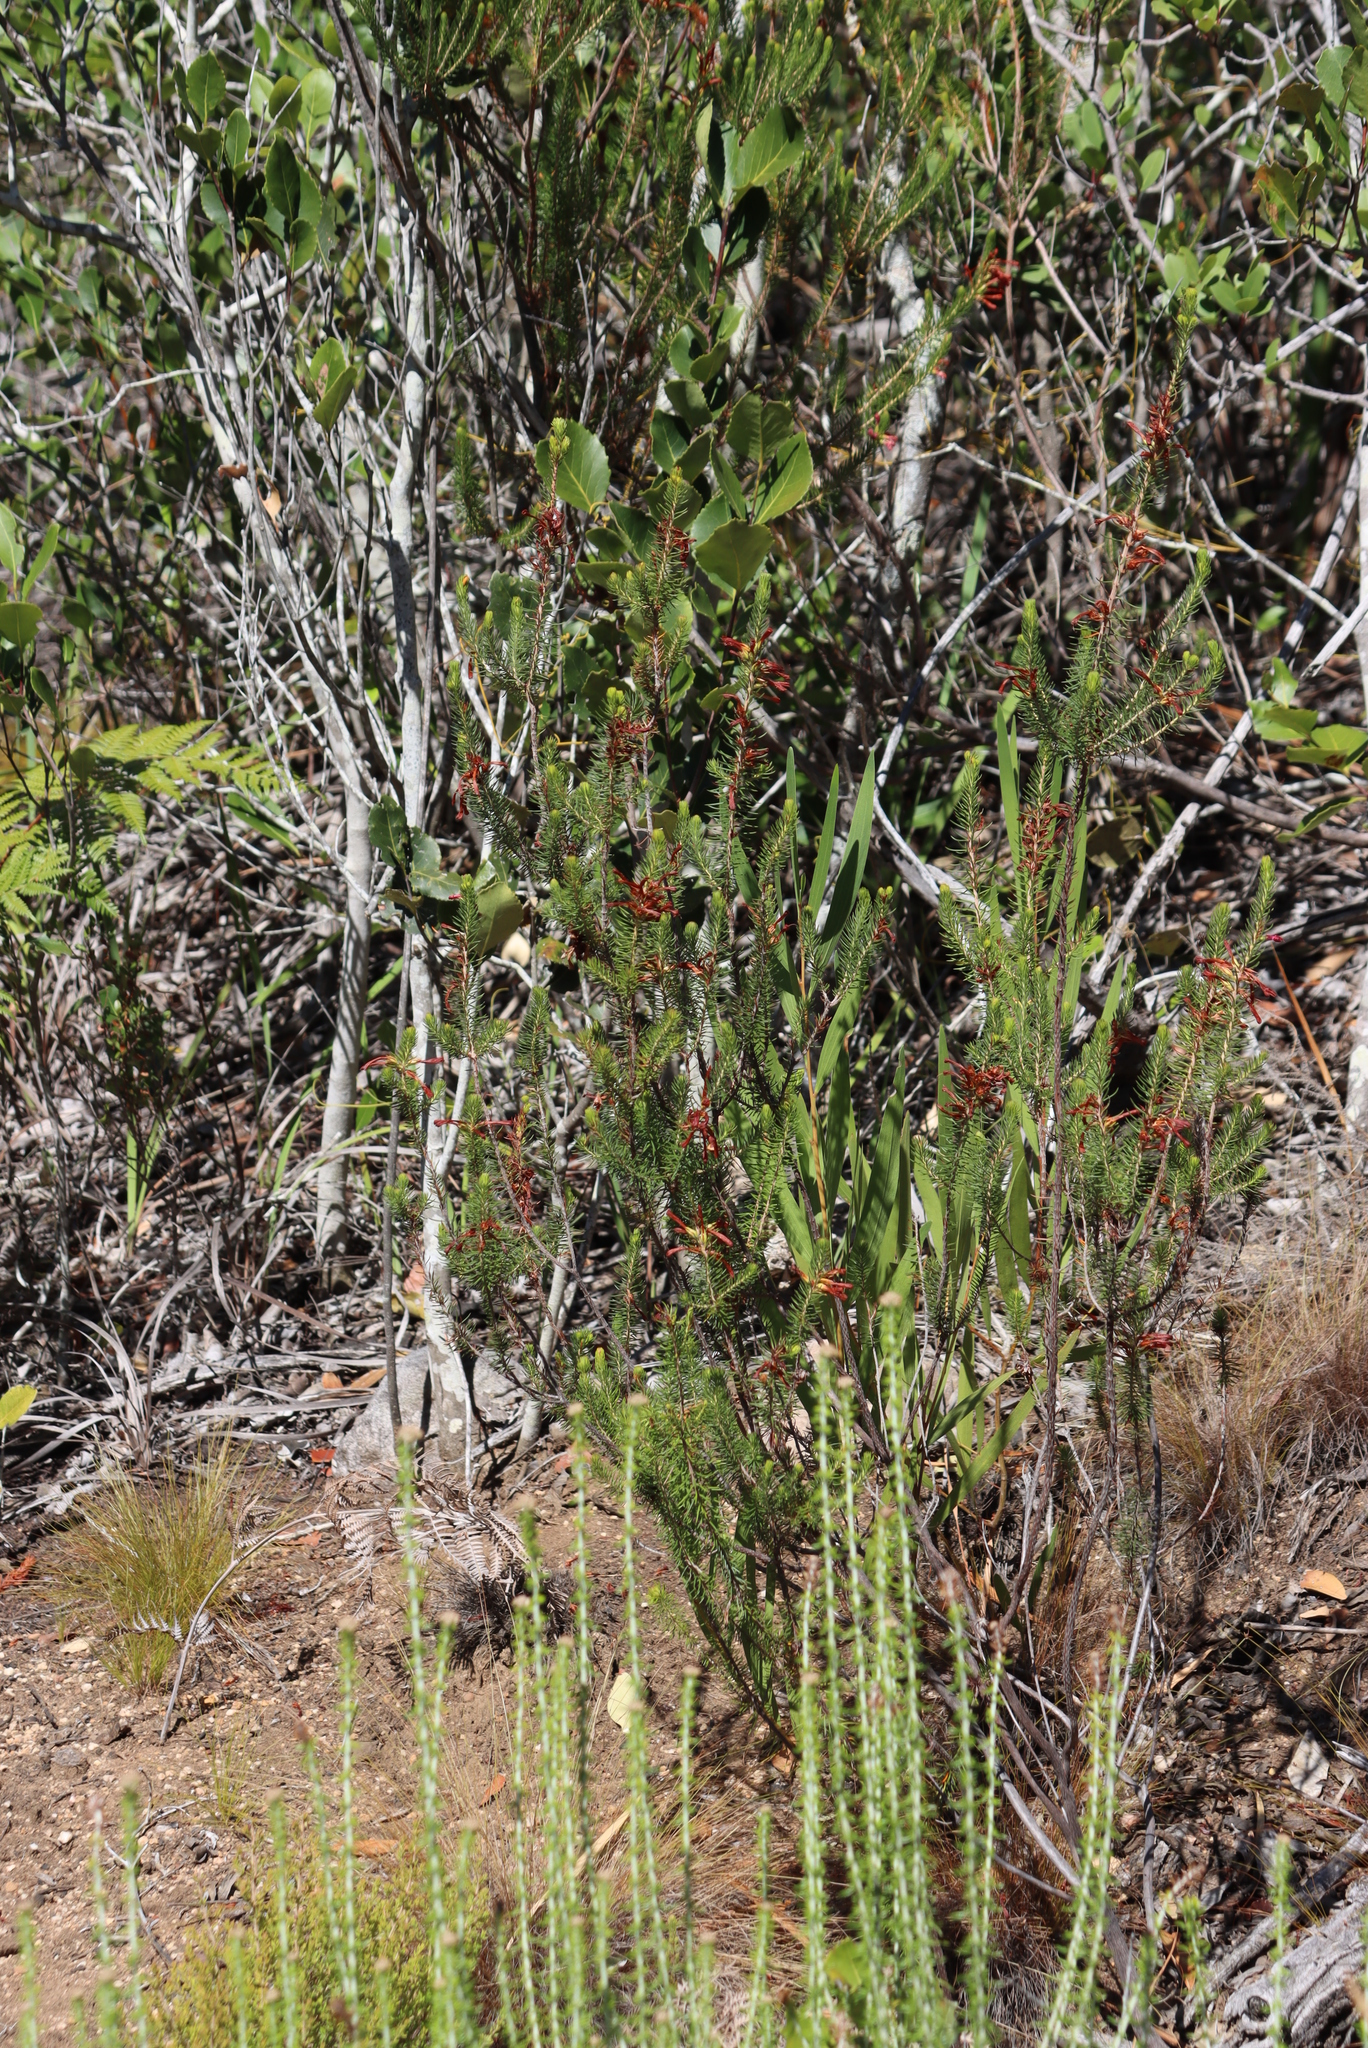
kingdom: Plantae
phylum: Tracheophyta
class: Magnoliopsida
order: Ericales
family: Ericaceae
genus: Erica
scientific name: Erica abietina
